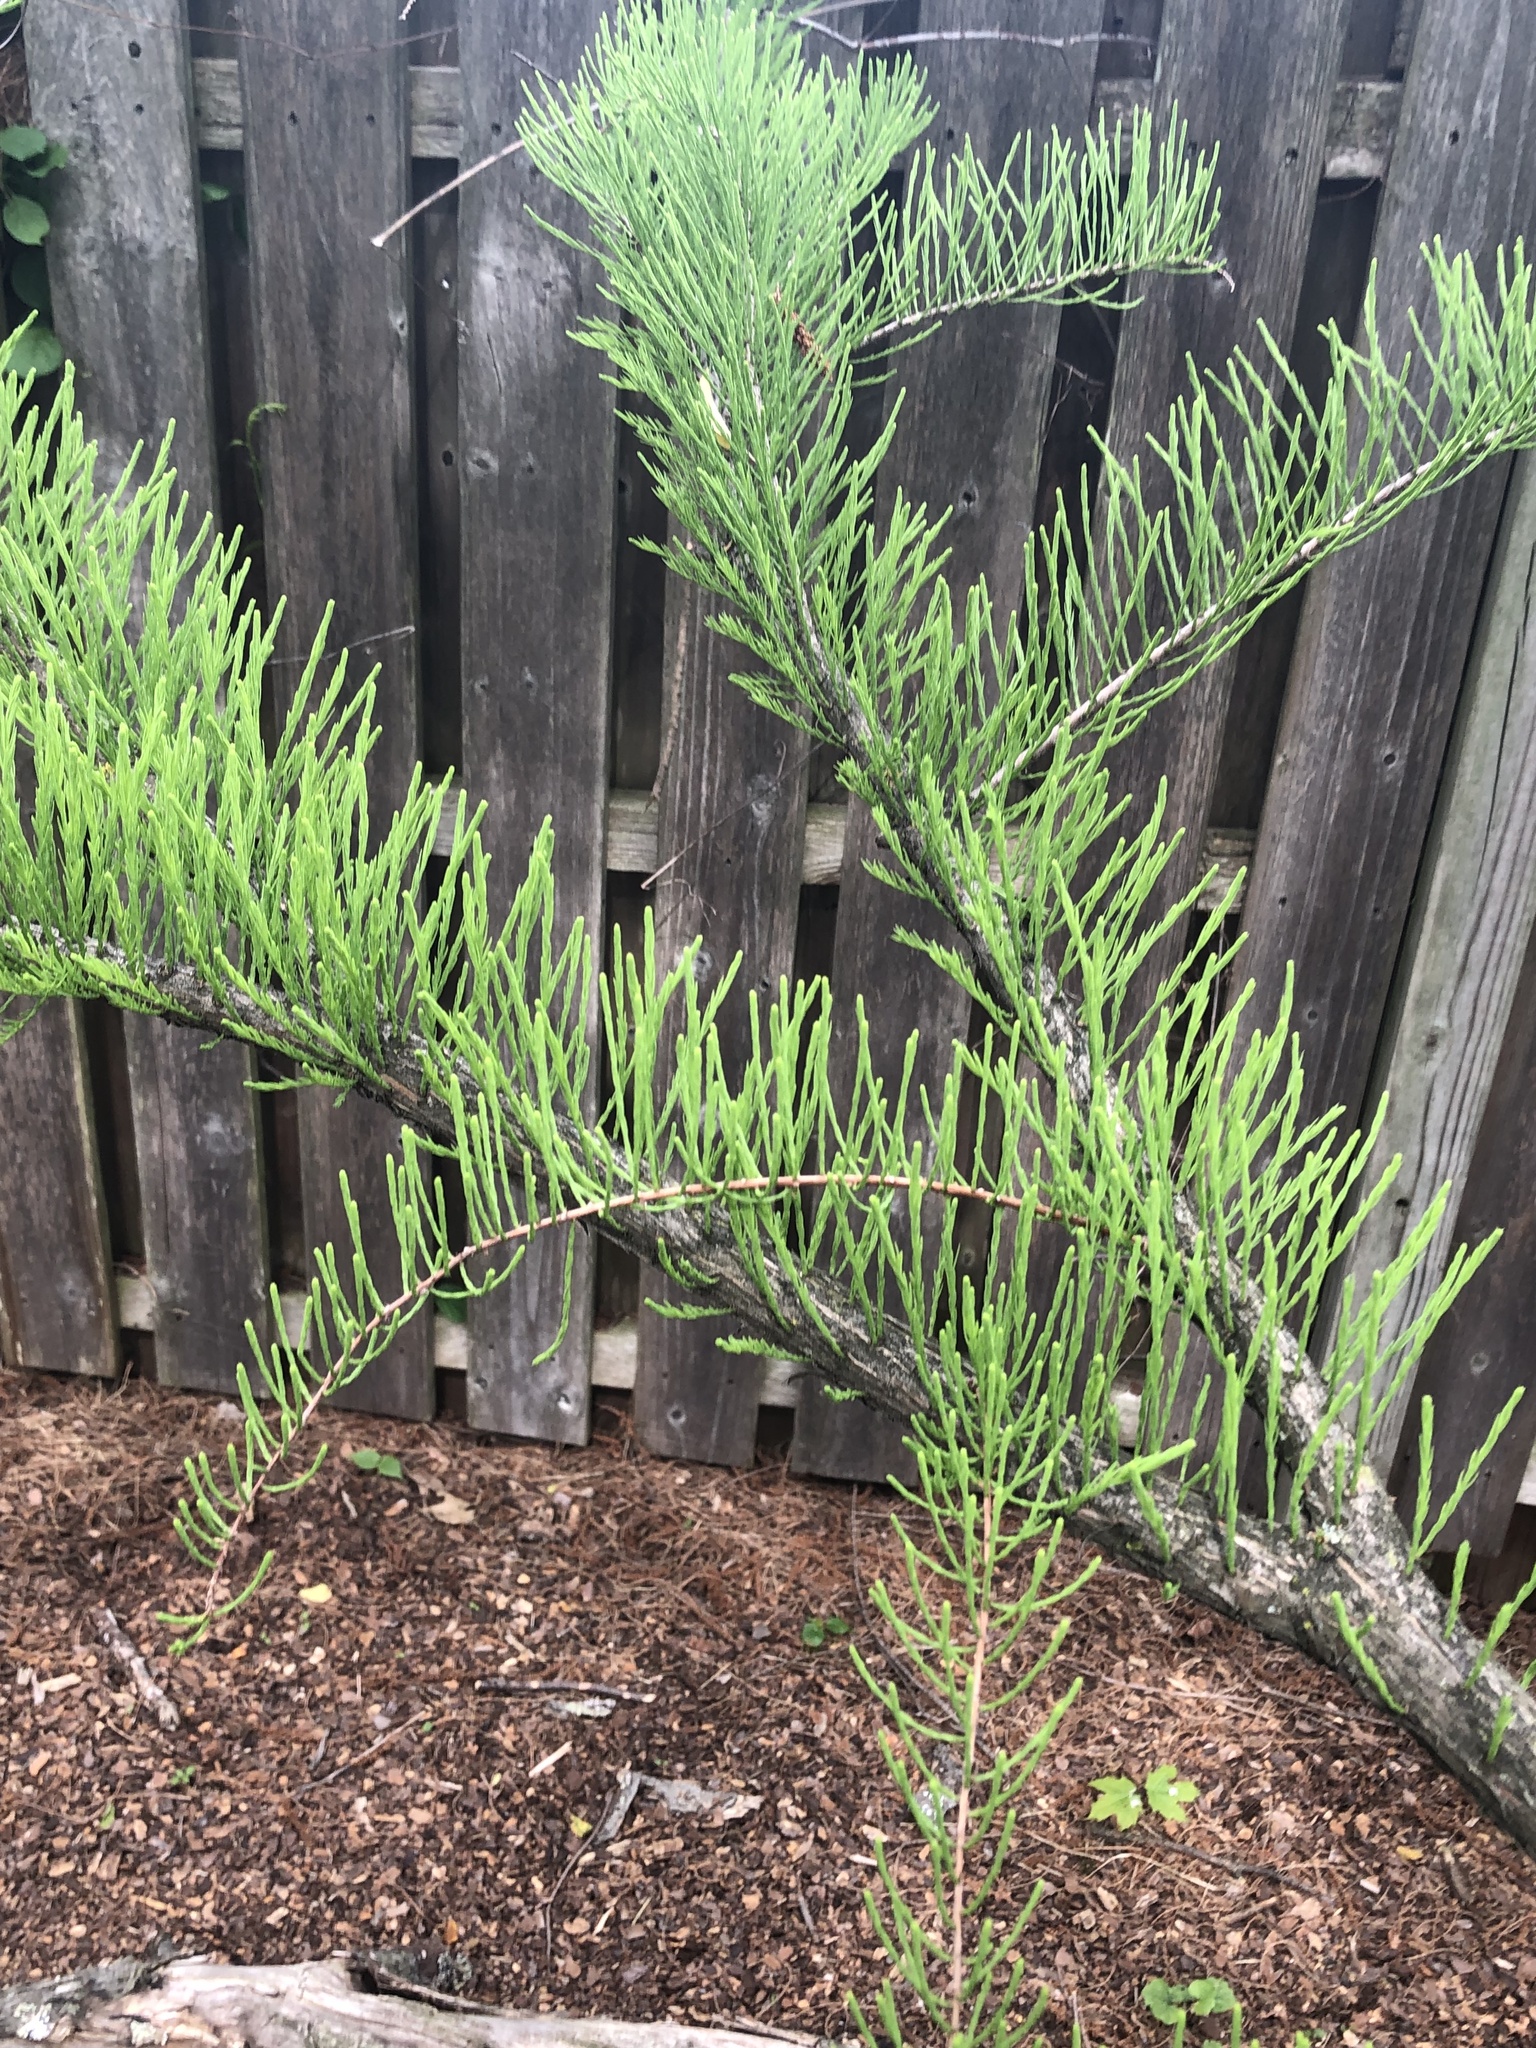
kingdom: Plantae
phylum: Tracheophyta
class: Pinopsida
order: Pinales
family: Cupressaceae
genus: Taxodium
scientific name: Taxodium distichum
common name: Bald cypress
